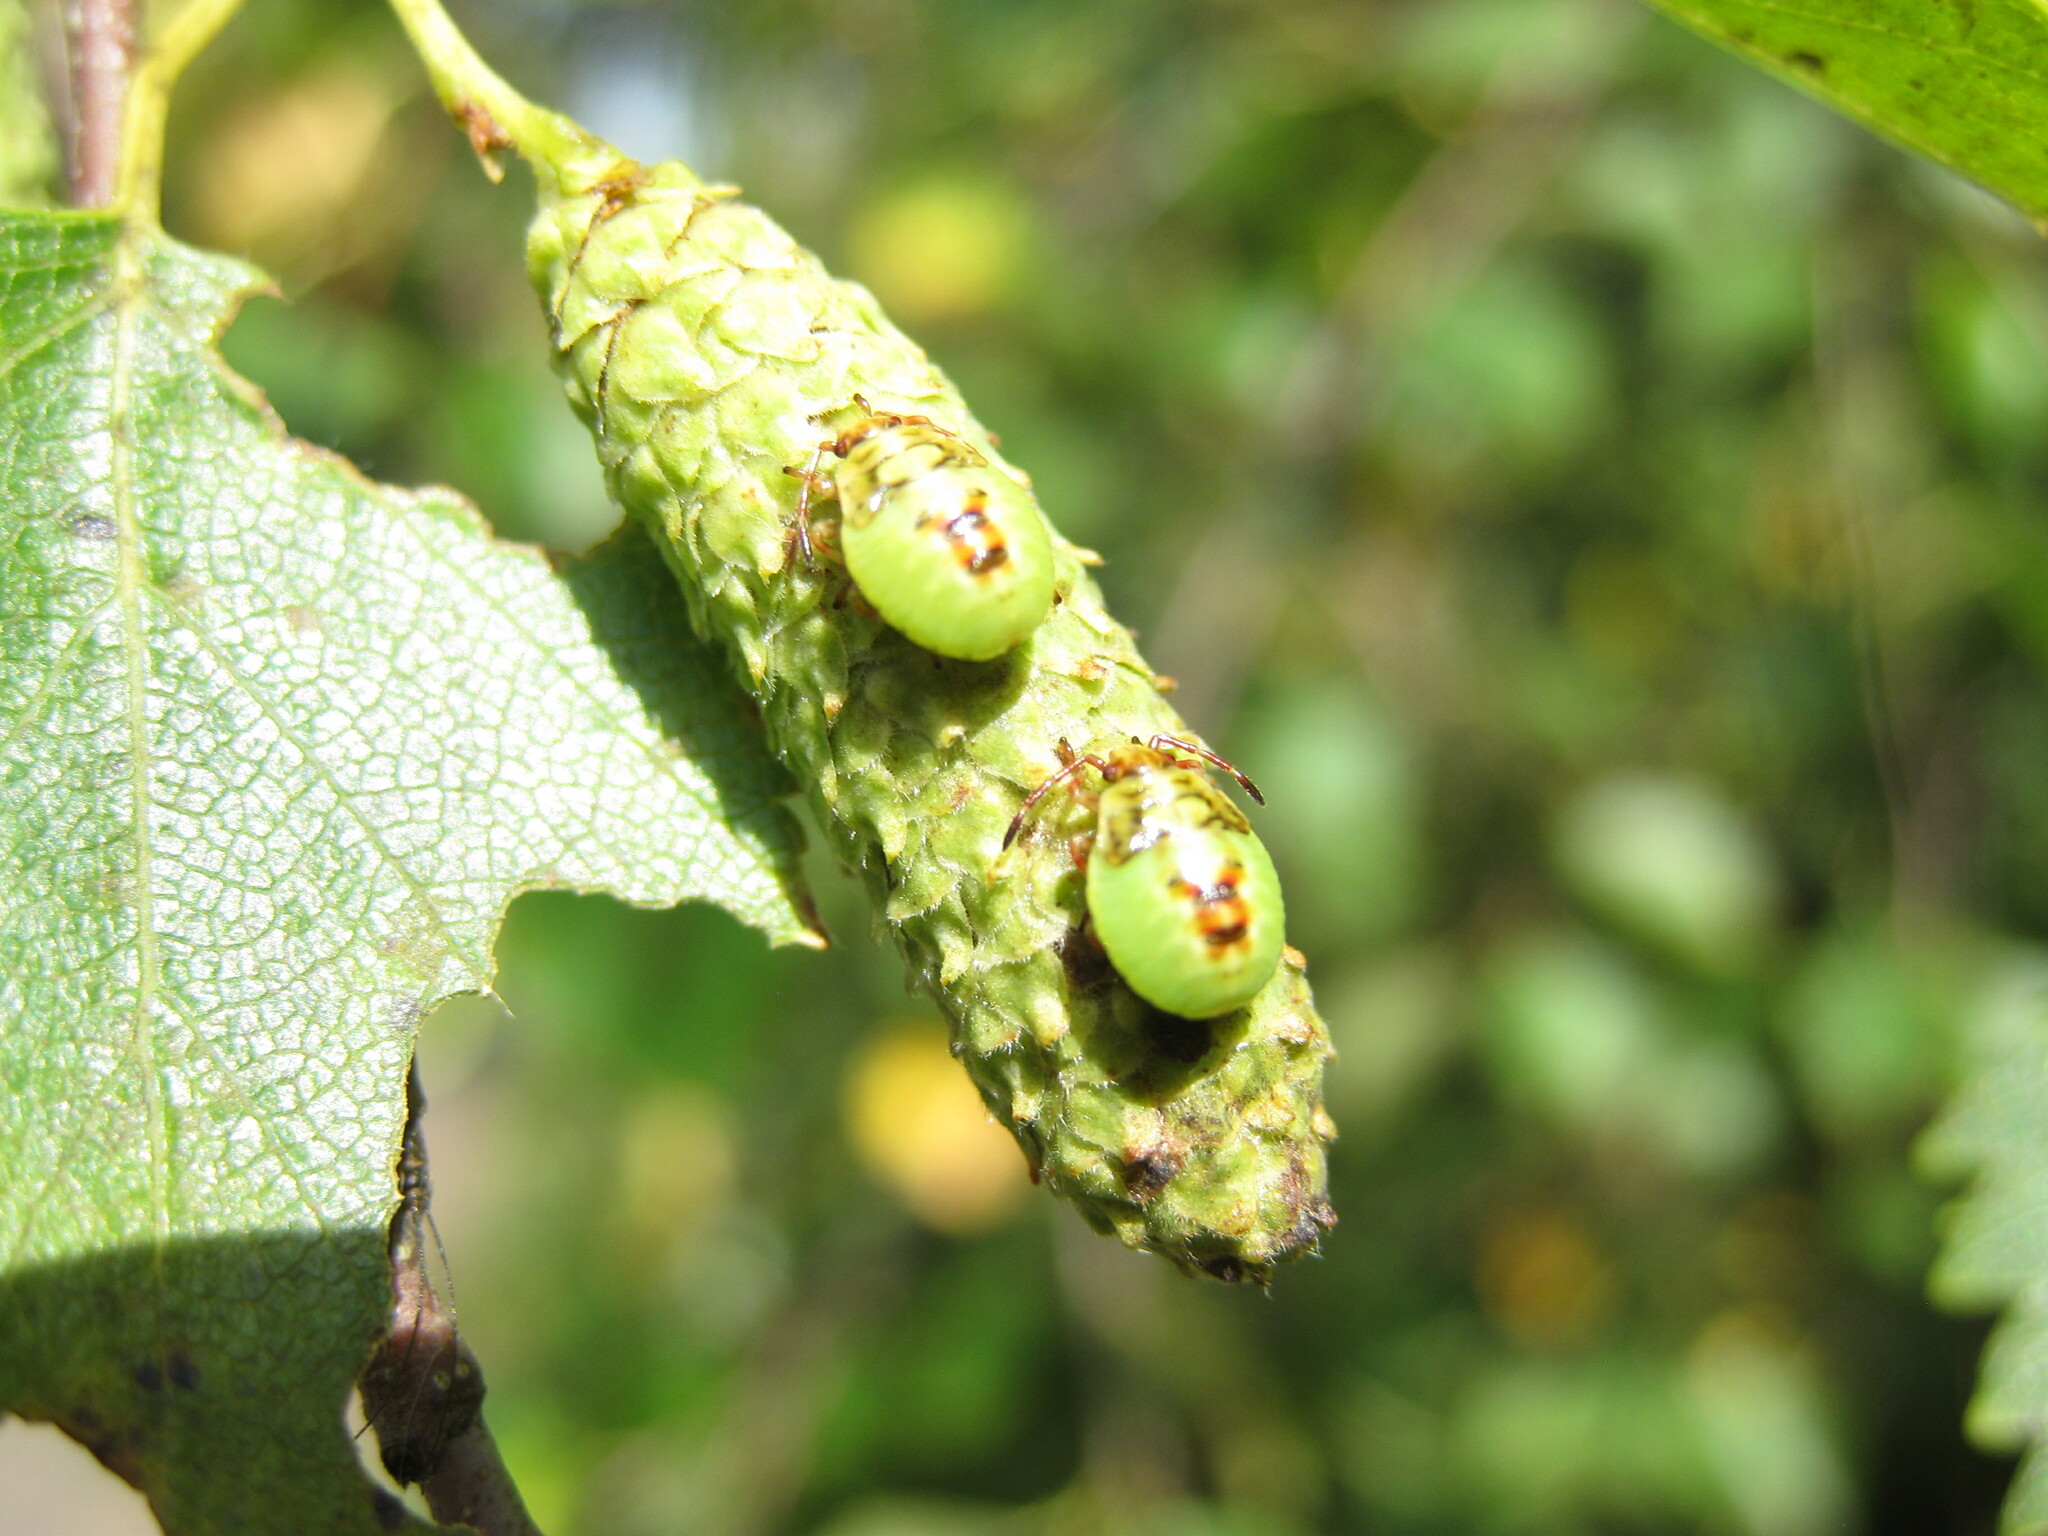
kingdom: Animalia
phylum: Arthropoda
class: Insecta
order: Hemiptera
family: Acanthosomatidae
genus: Elasmostethus
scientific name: Elasmostethus interstinctus
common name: Birch shieldbug
